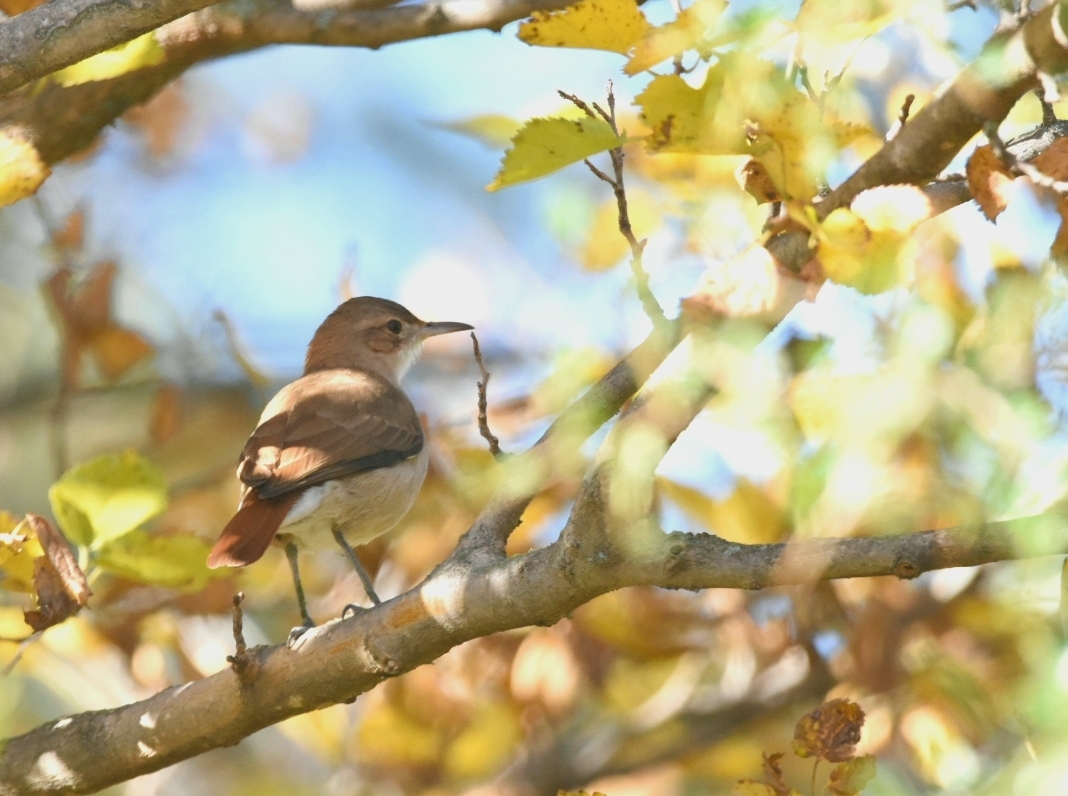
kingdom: Animalia
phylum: Chordata
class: Aves
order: Passeriformes
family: Furnariidae
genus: Furnarius
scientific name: Furnarius rufus
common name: Rufous hornero
